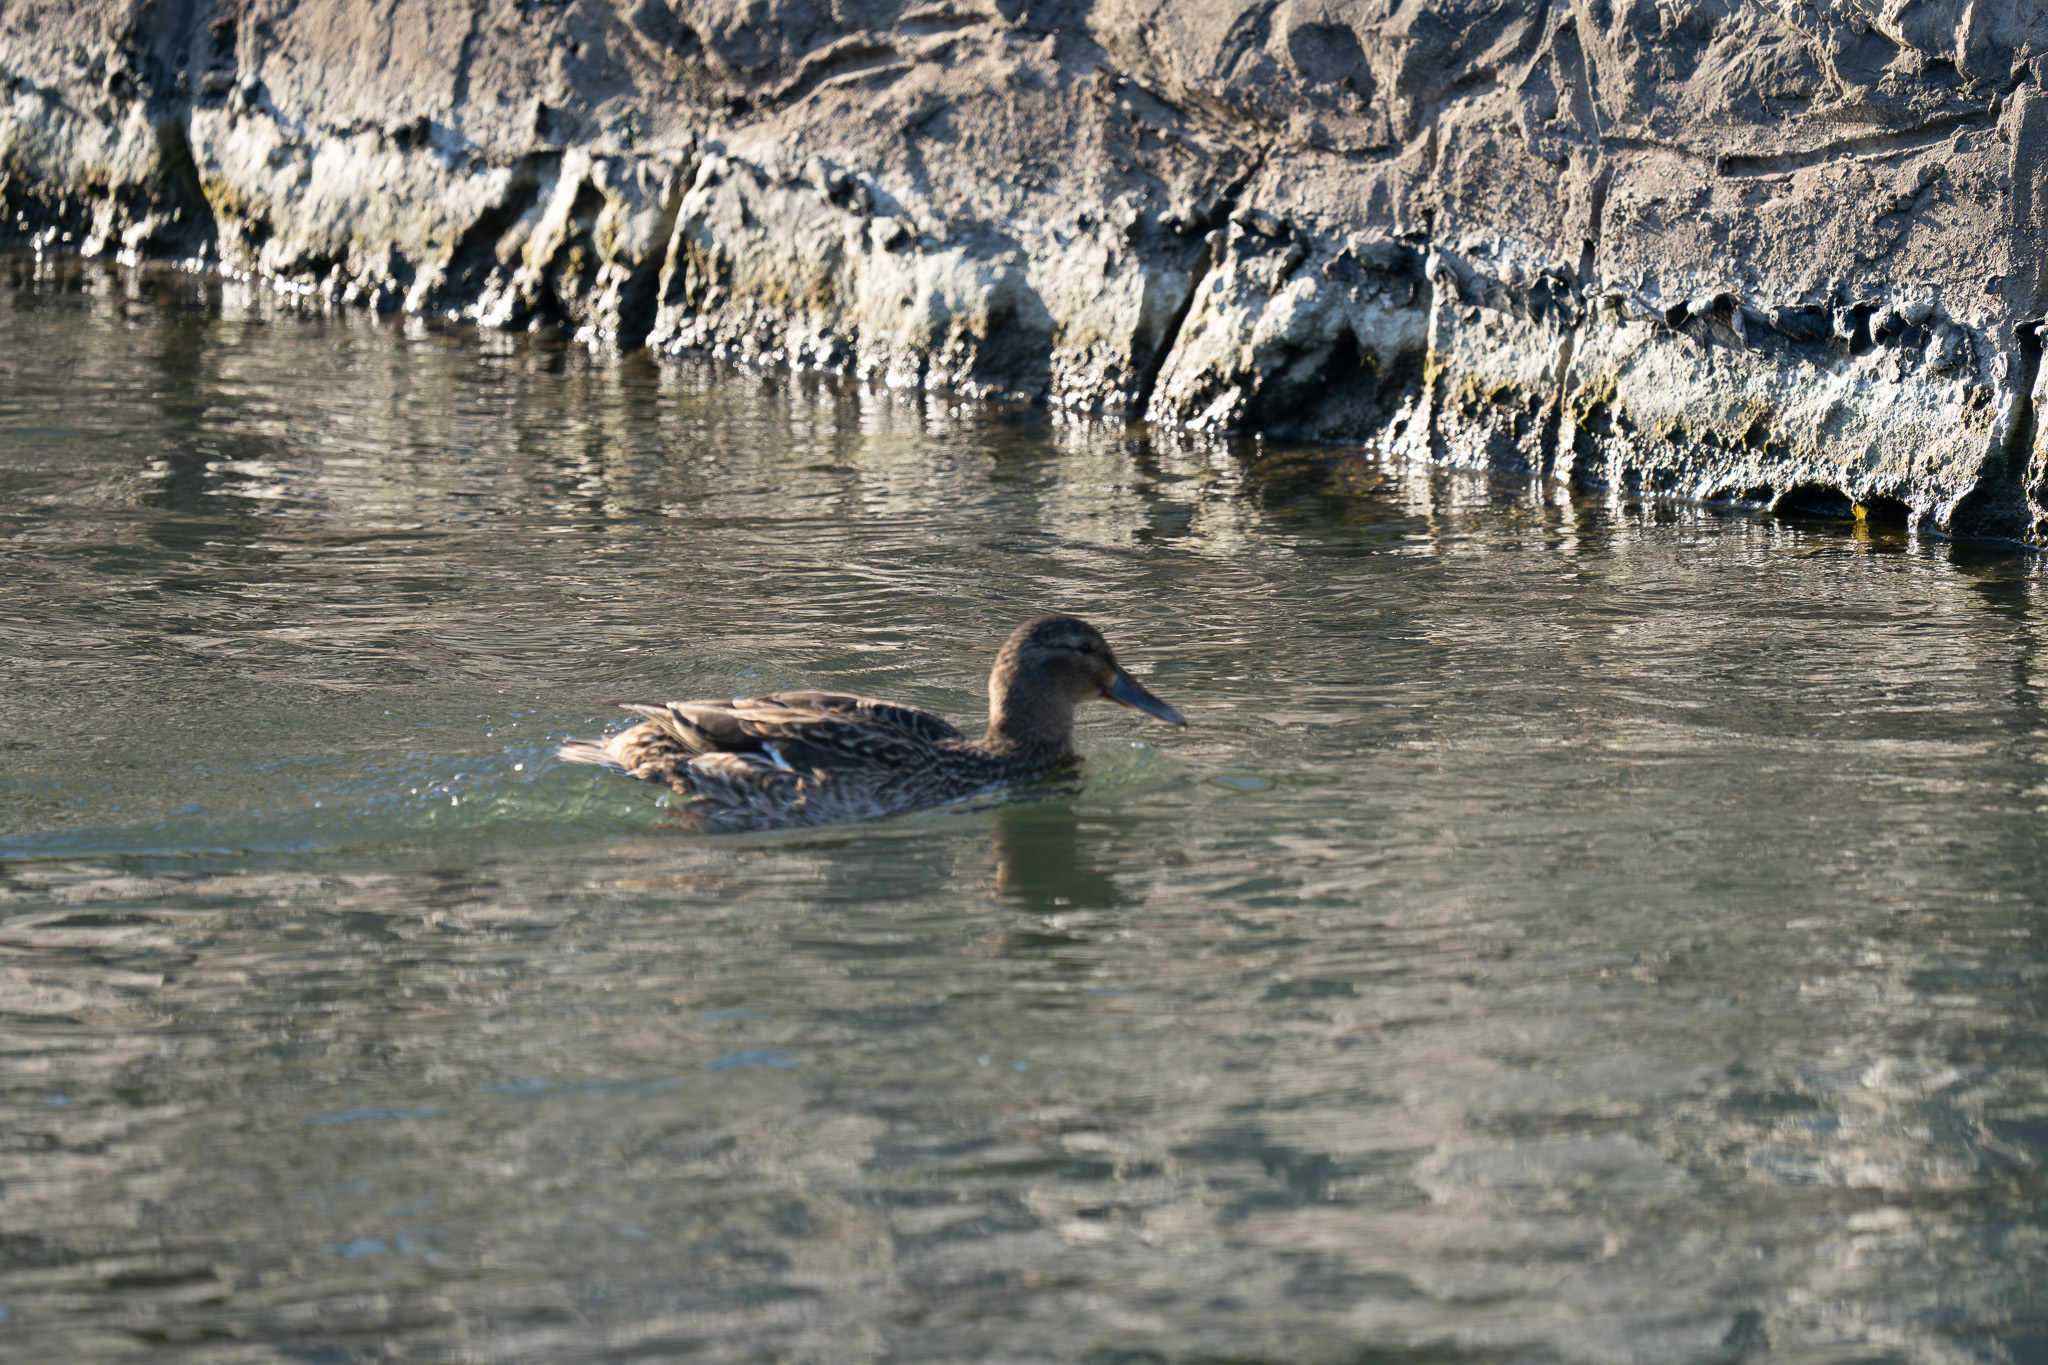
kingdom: Animalia
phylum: Chordata
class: Aves
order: Anseriformes
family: Anatidae
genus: Anas
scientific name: Anas platyrhynchos
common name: Mallard
